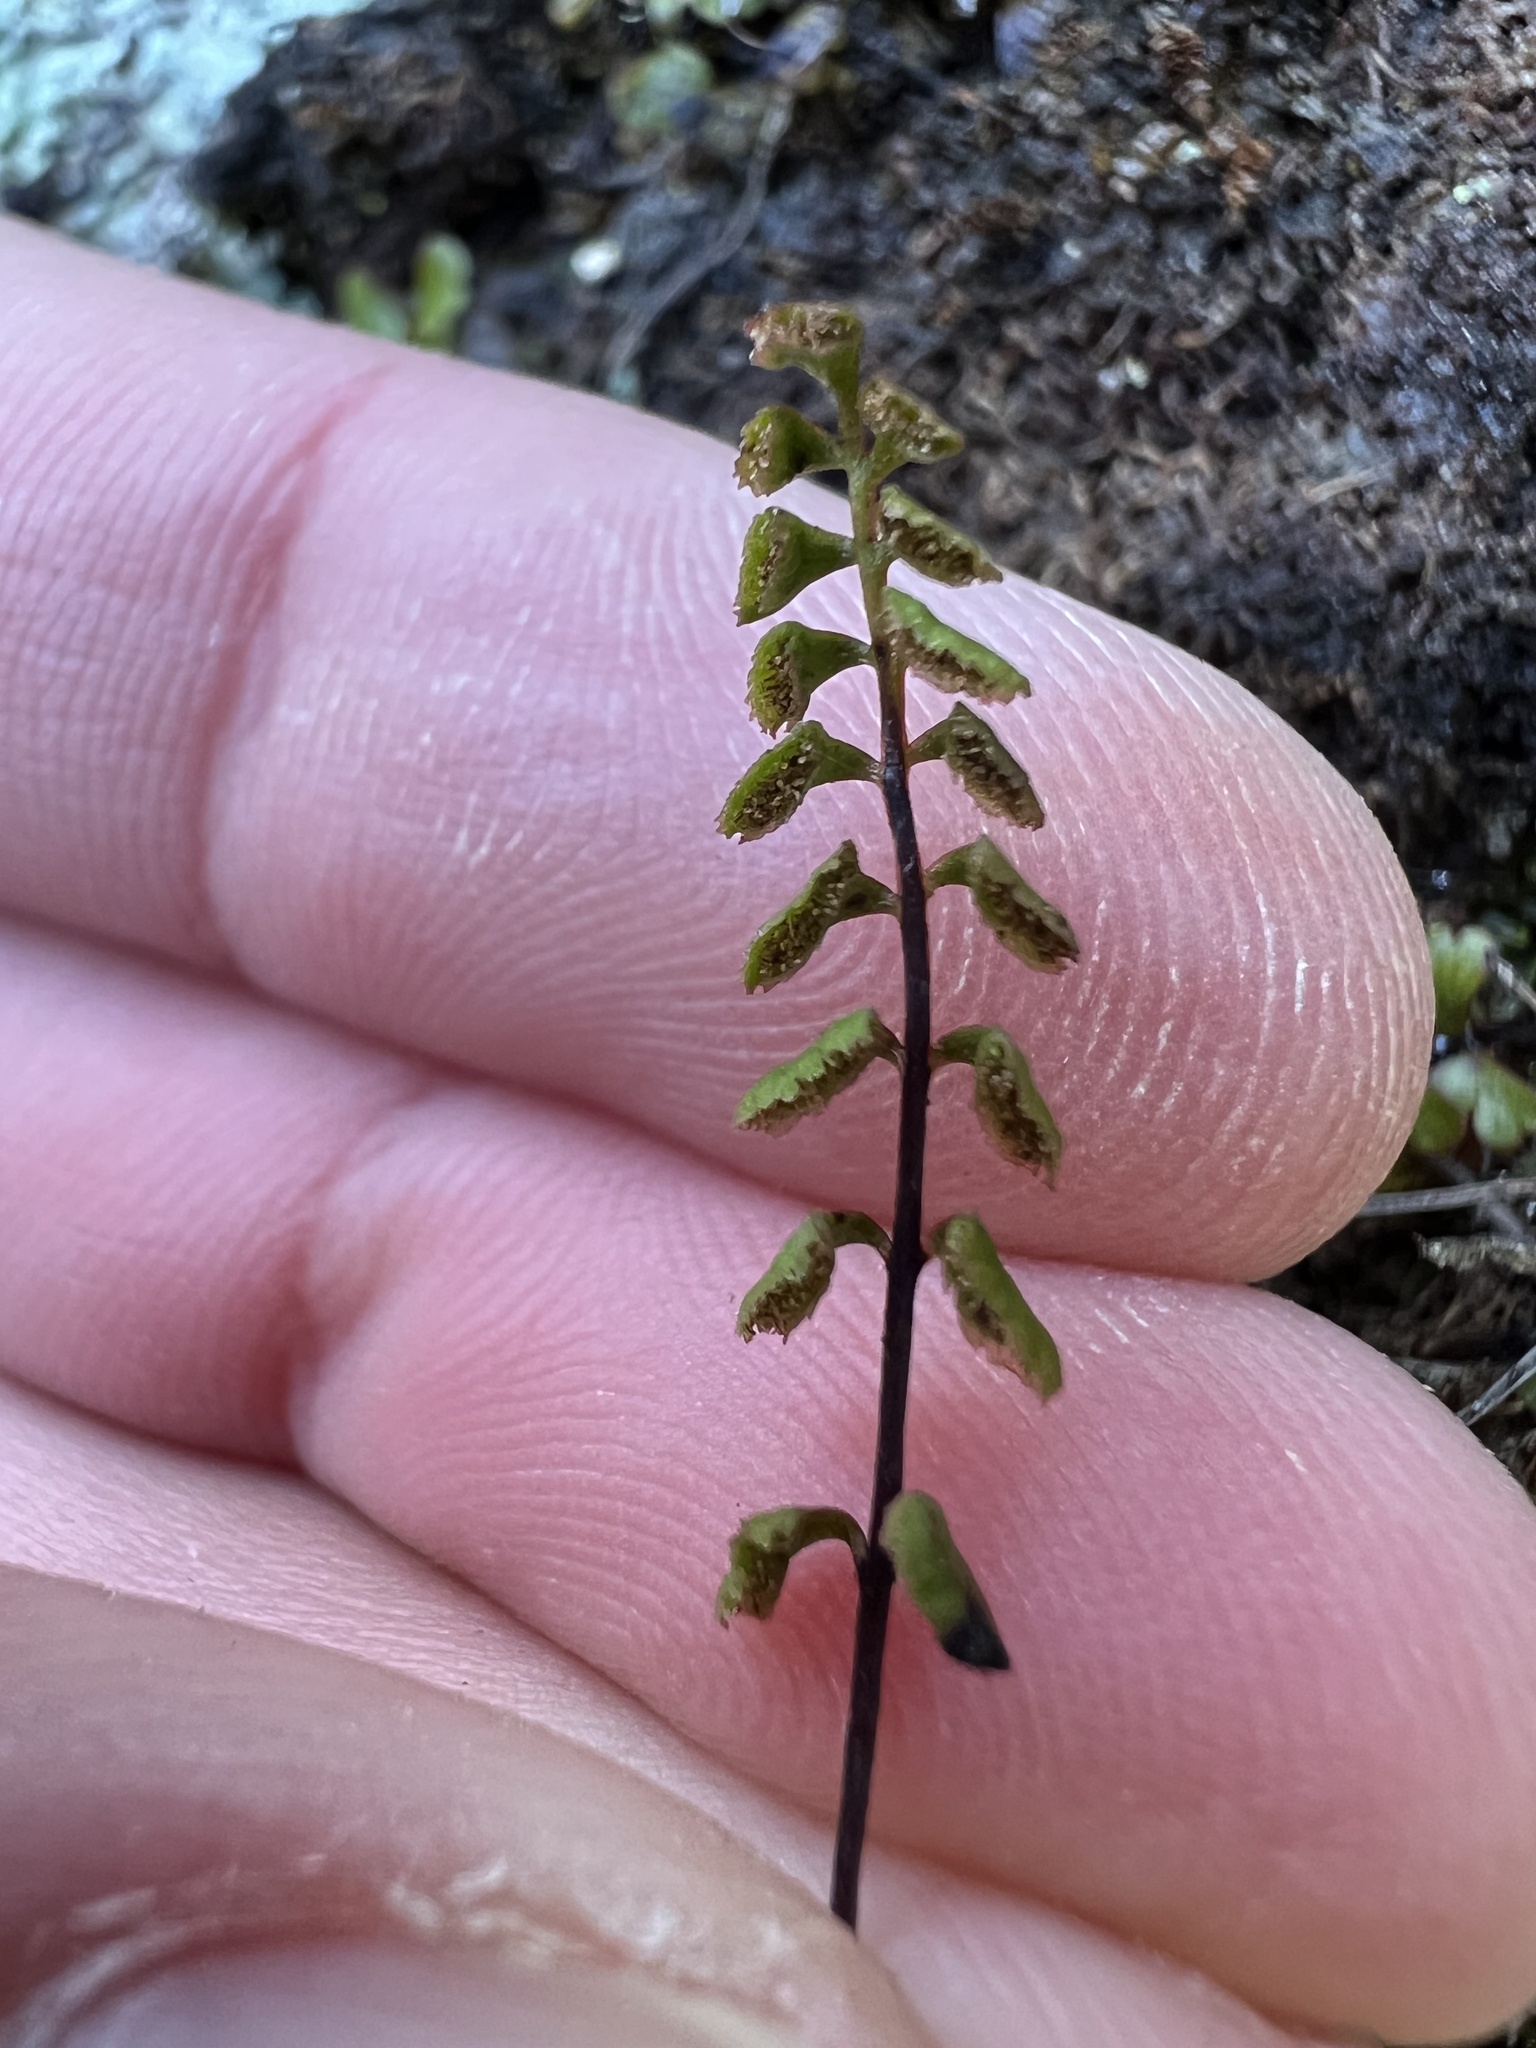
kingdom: Plantae
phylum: Tracheophyta
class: Polypodiopsida
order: Polypodiales
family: Lindsaeaceae
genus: Lindsaea
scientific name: Lindsaea linearis
